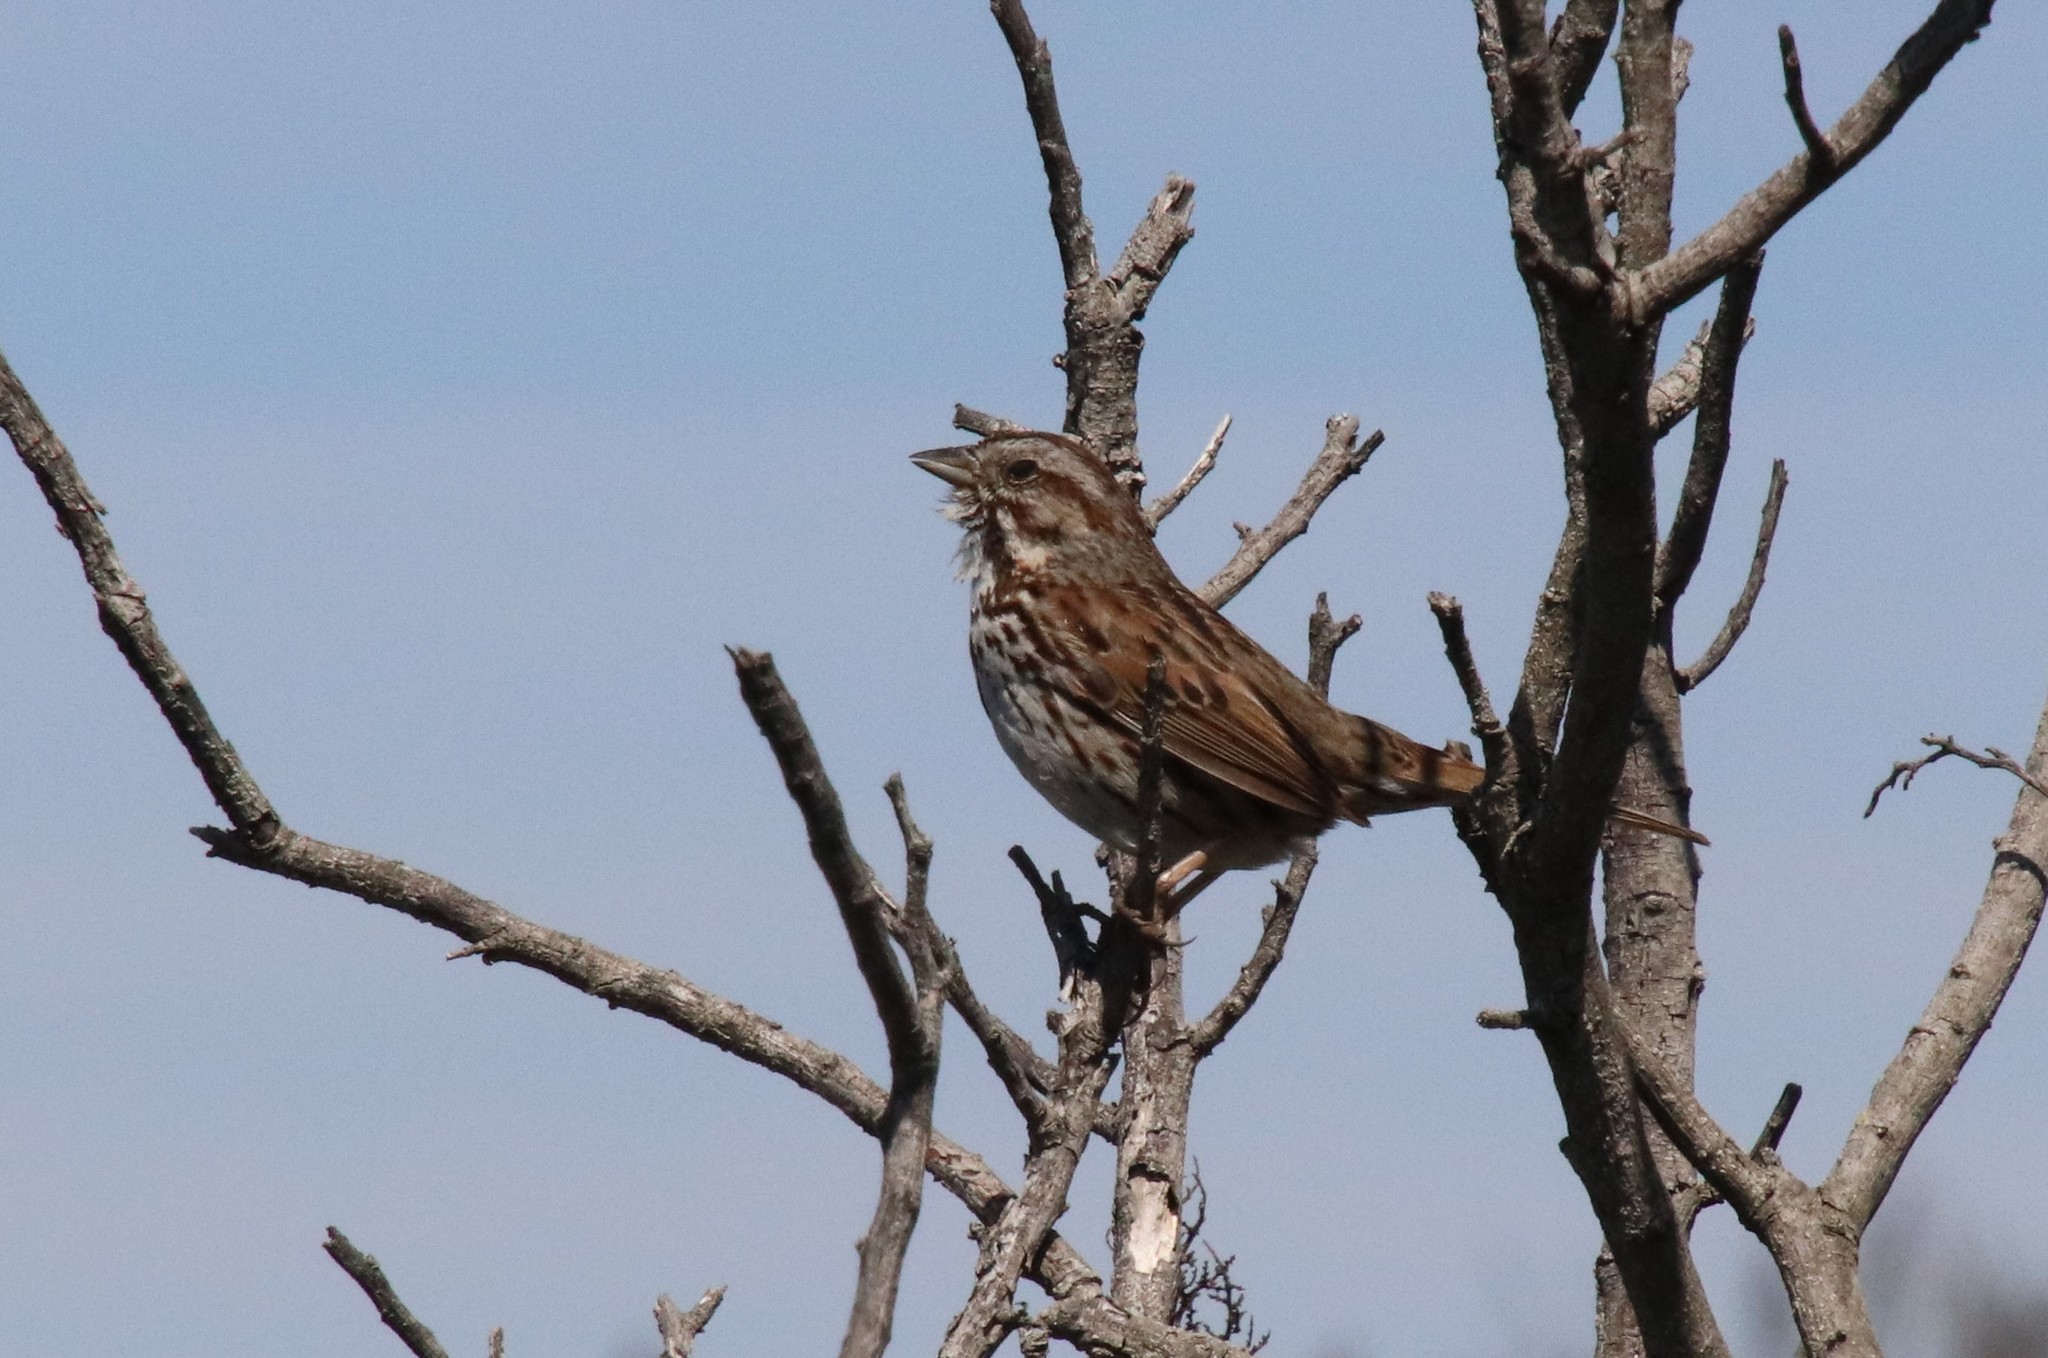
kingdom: Animalia
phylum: Chordata
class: Aves
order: Passeriformes
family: Passerellidae
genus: Melospiza
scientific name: Melospiza melodia
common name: Song sparrow
